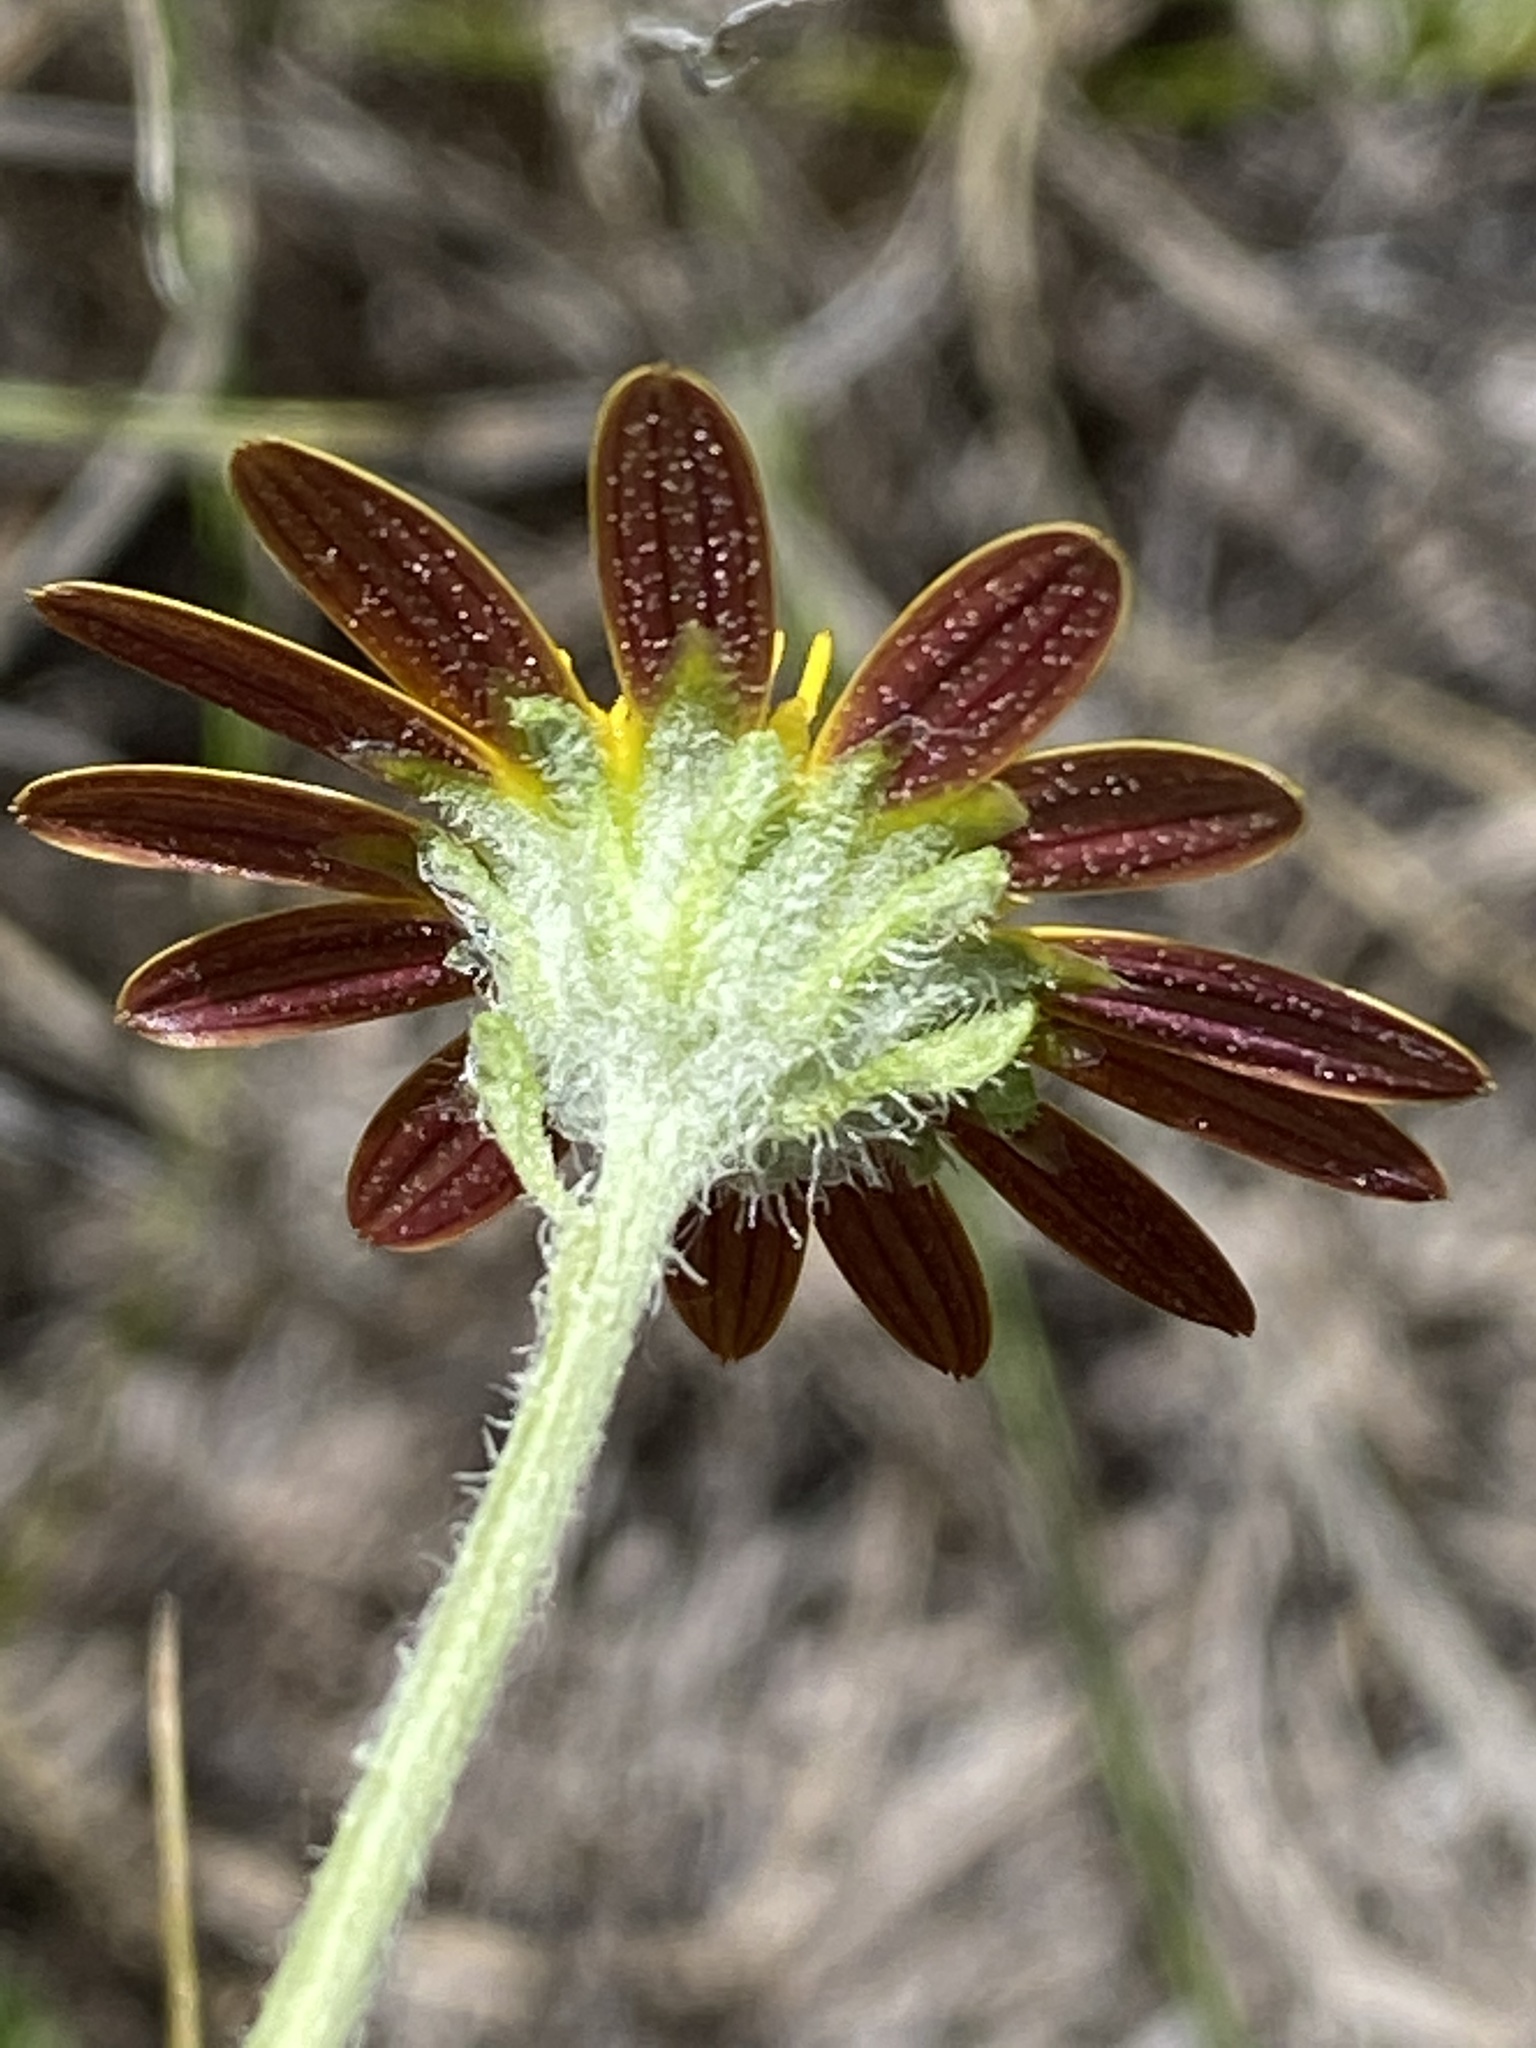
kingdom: Plantae
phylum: Tracheophyta
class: Magnoliopsida
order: Asterales
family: Asteraceae
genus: Arctotis
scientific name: Arctotis arctotoides
